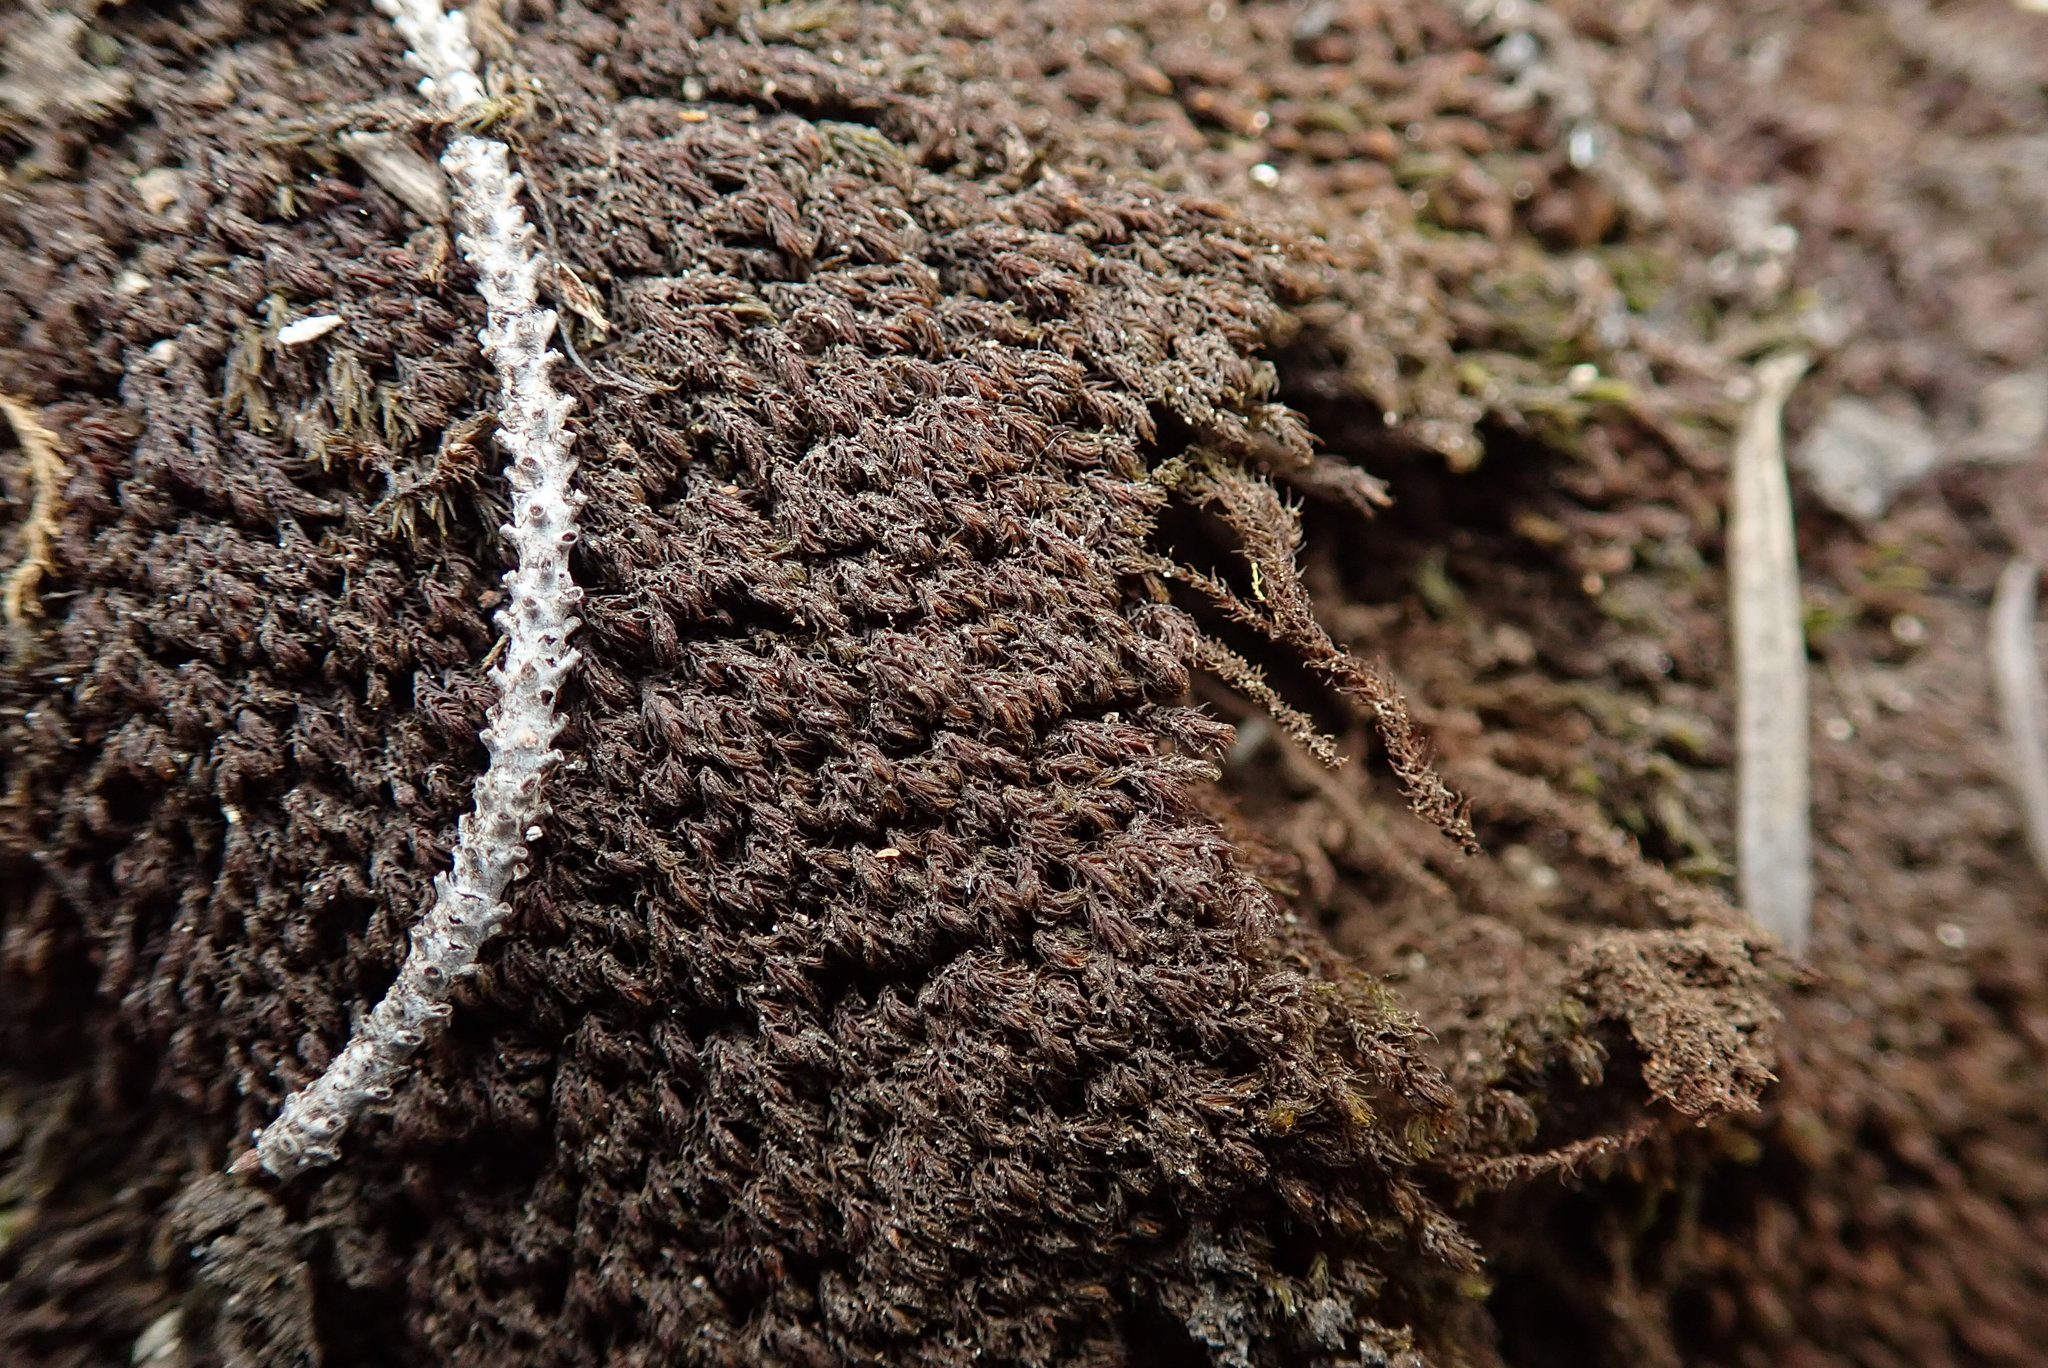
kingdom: Plantae
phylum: Bryophyta
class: Andreaeopsida
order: Andreaeales
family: Andreaeaceae
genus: Andreaea
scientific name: Andreaea nivalis
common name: Snow rock moss
